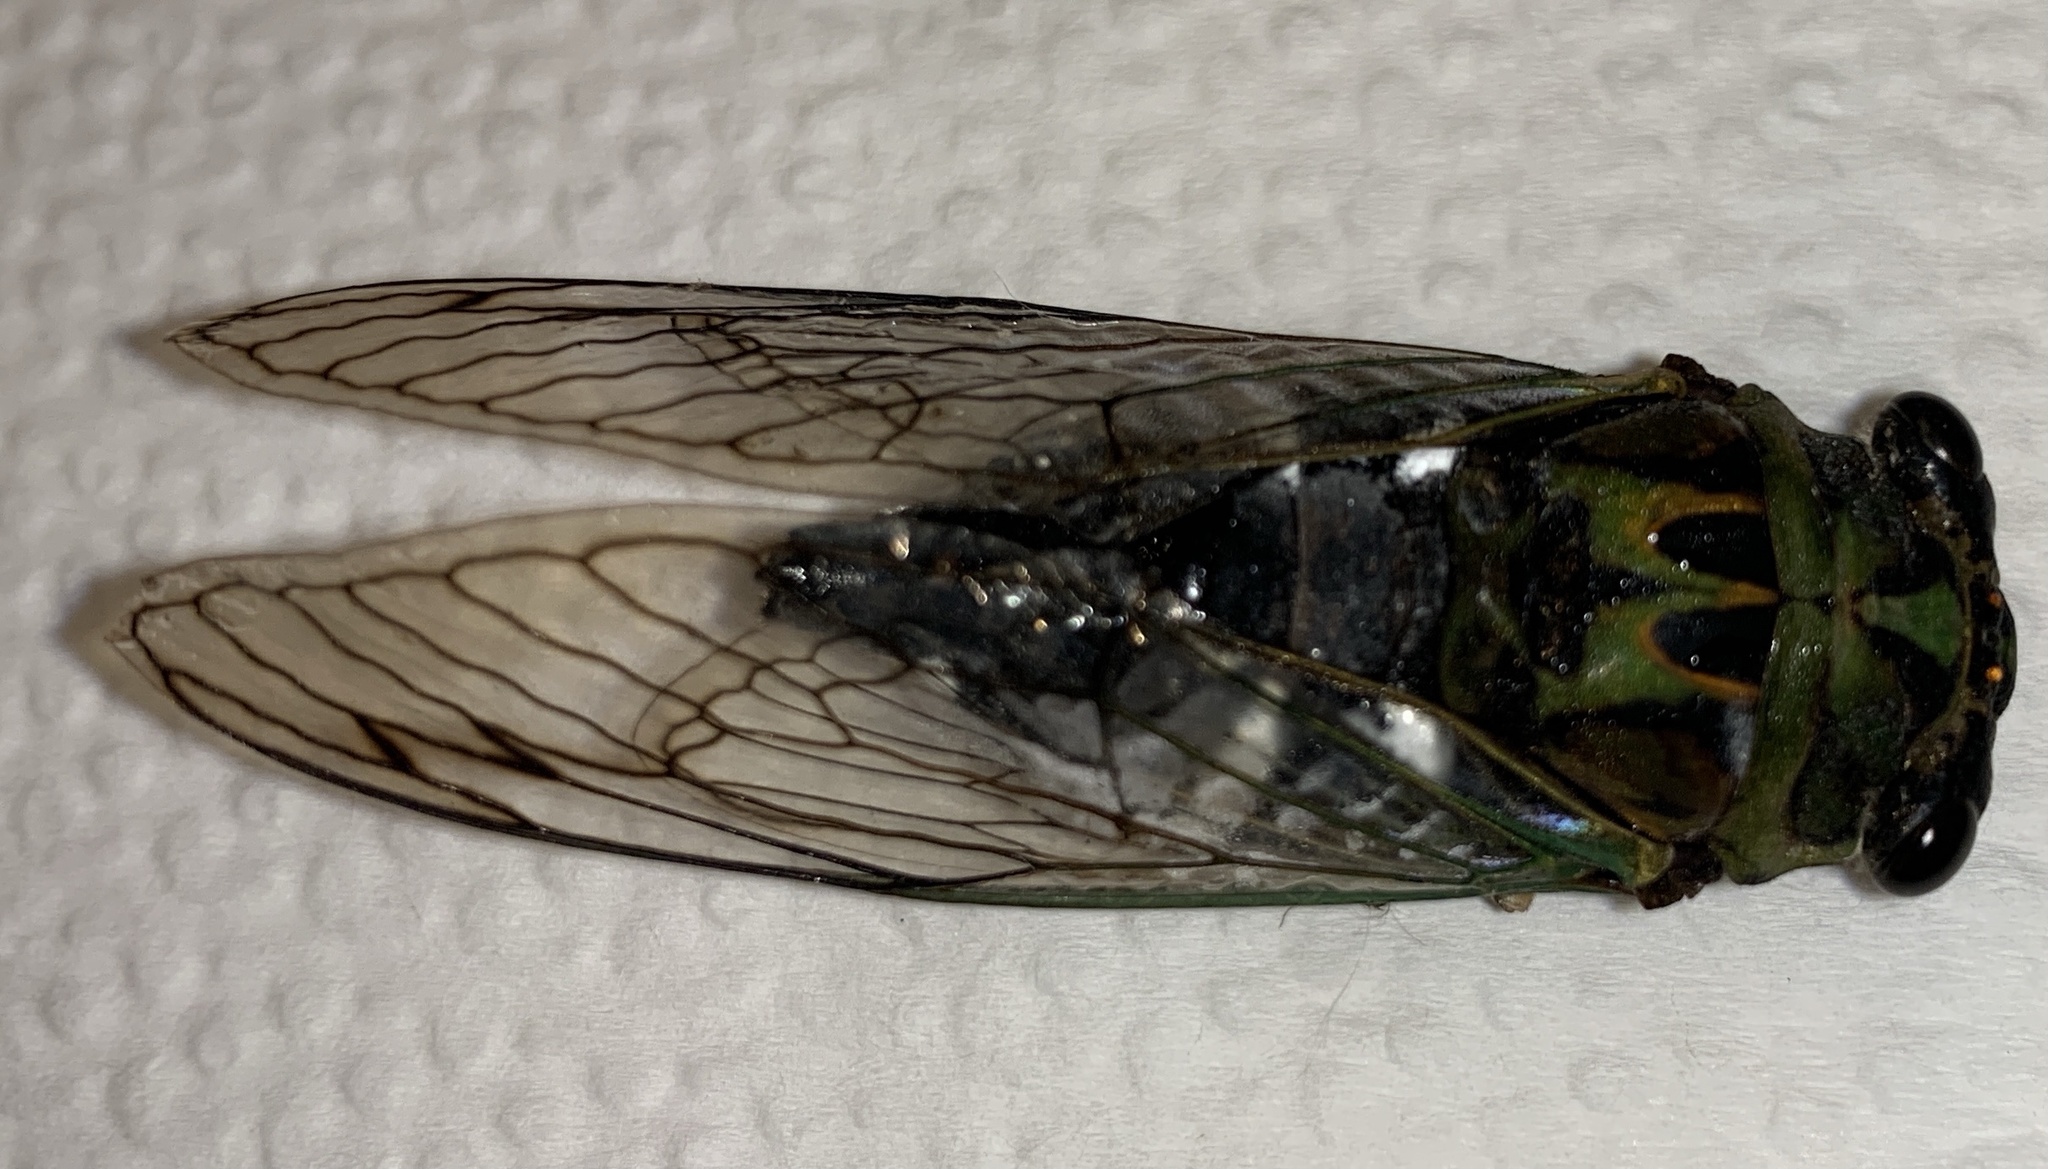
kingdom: Animalia
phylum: Arthropoda
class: Insecta
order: Hemiptera
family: Cicadidae
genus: Neotibicen
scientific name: Neotibicen latifasciatus
